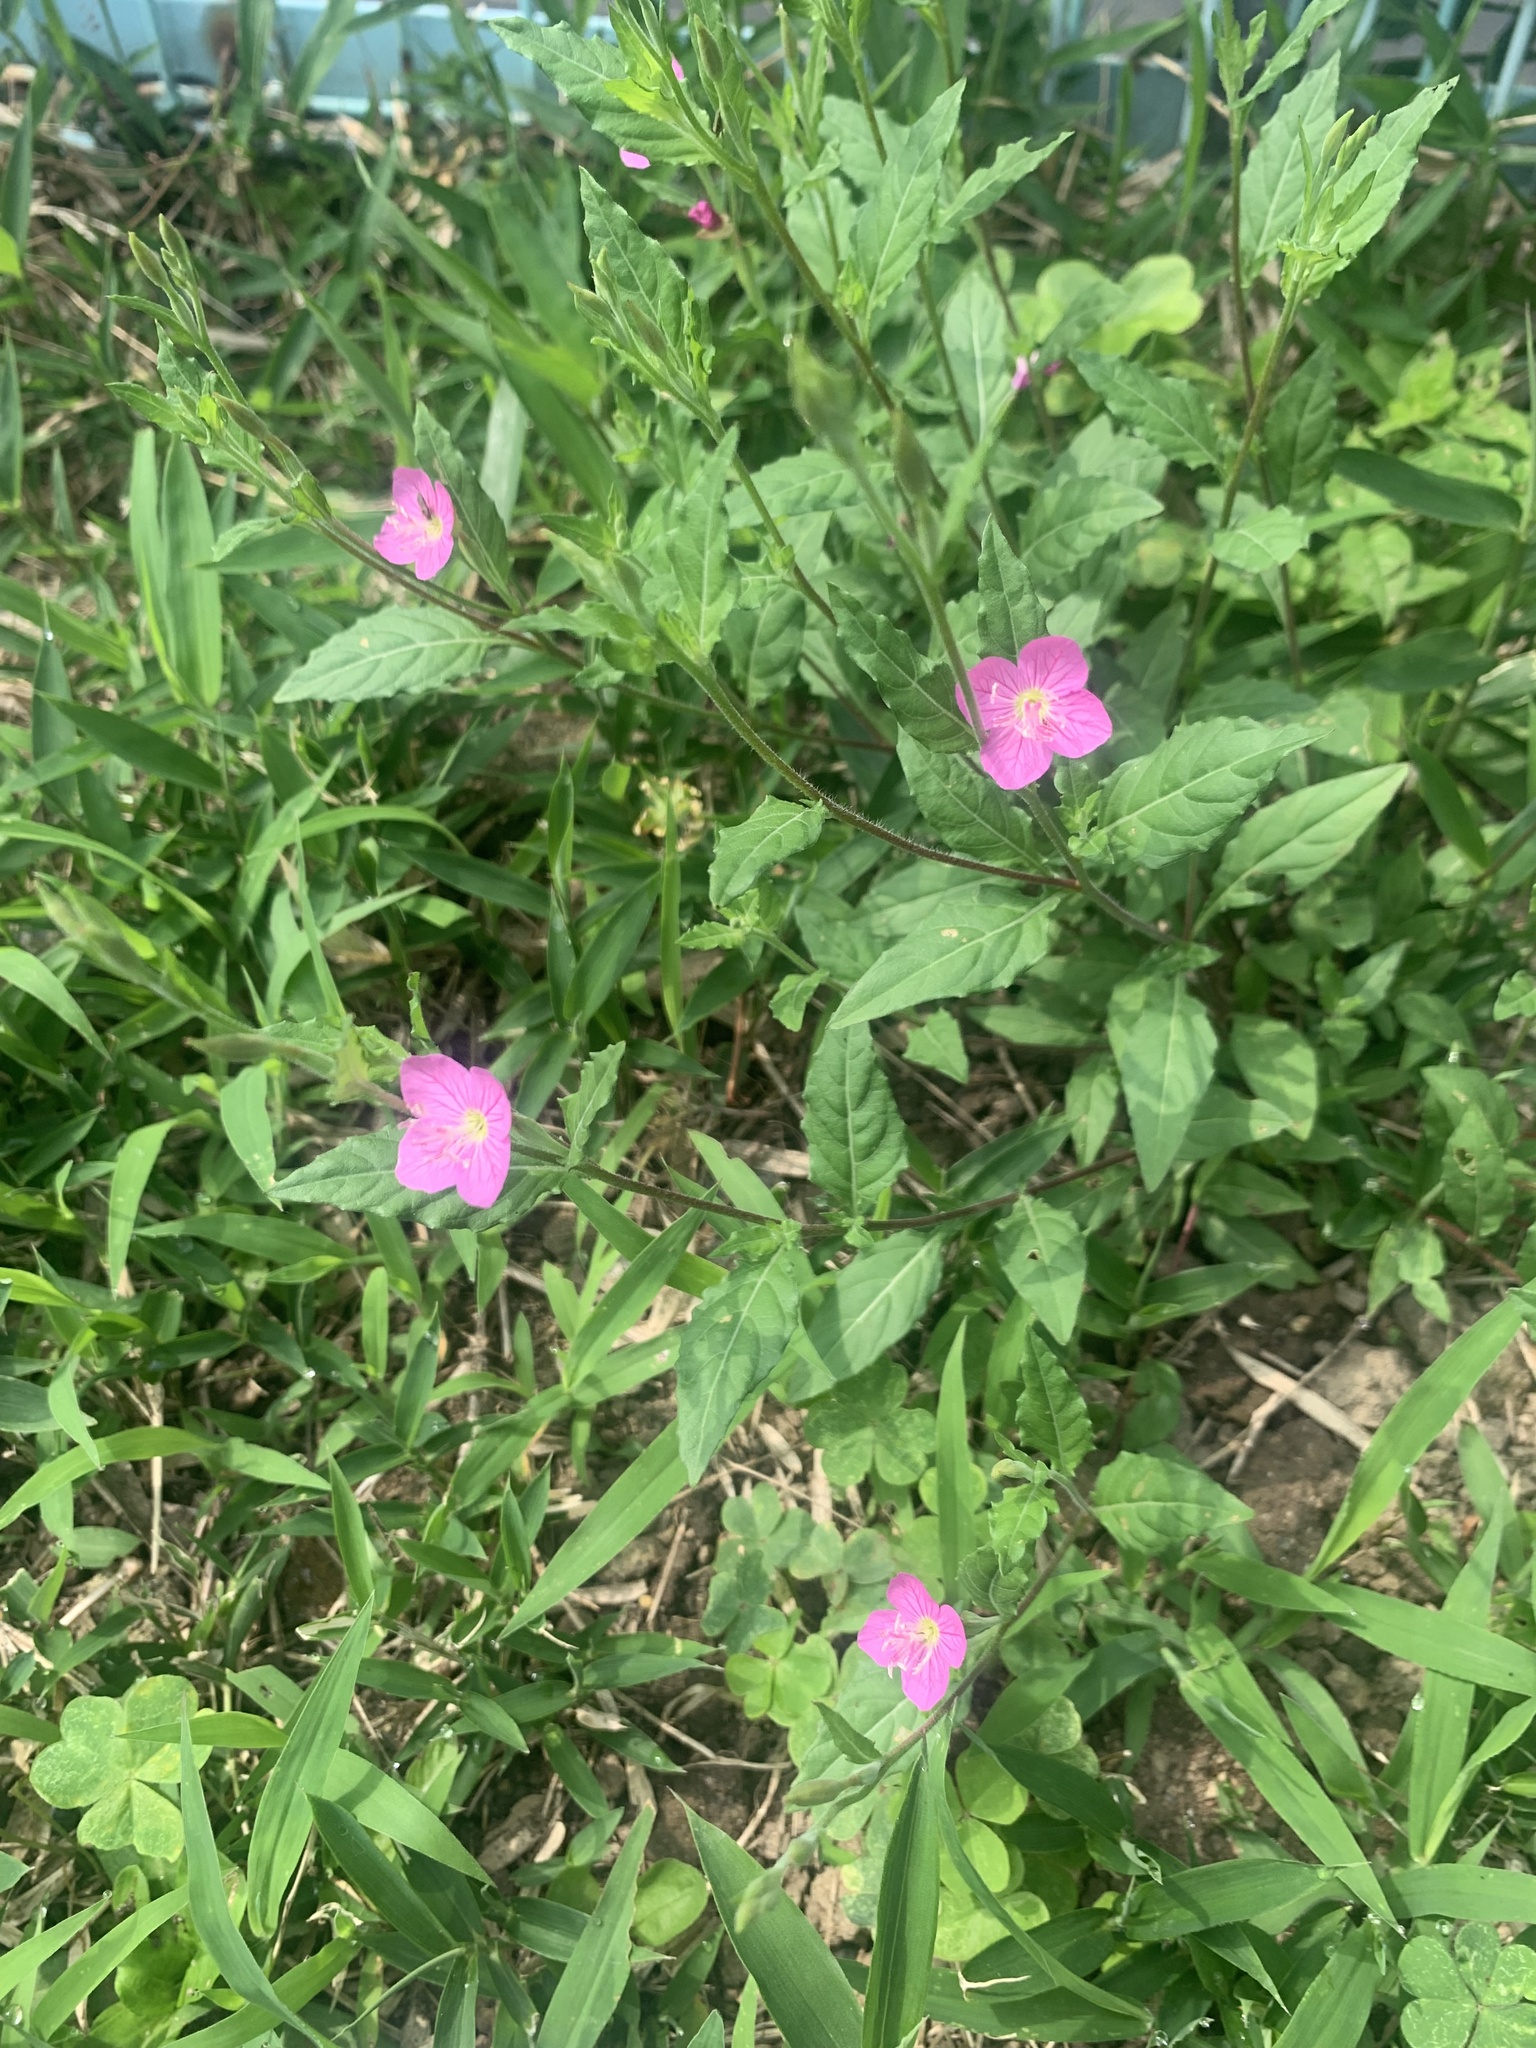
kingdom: Plantae
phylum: Tracheophyta
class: Magnoliopsida
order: Myrtales
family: Onagraceae
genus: Oenothera
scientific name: Oenothera rosea
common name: Rosy evening-primrose
